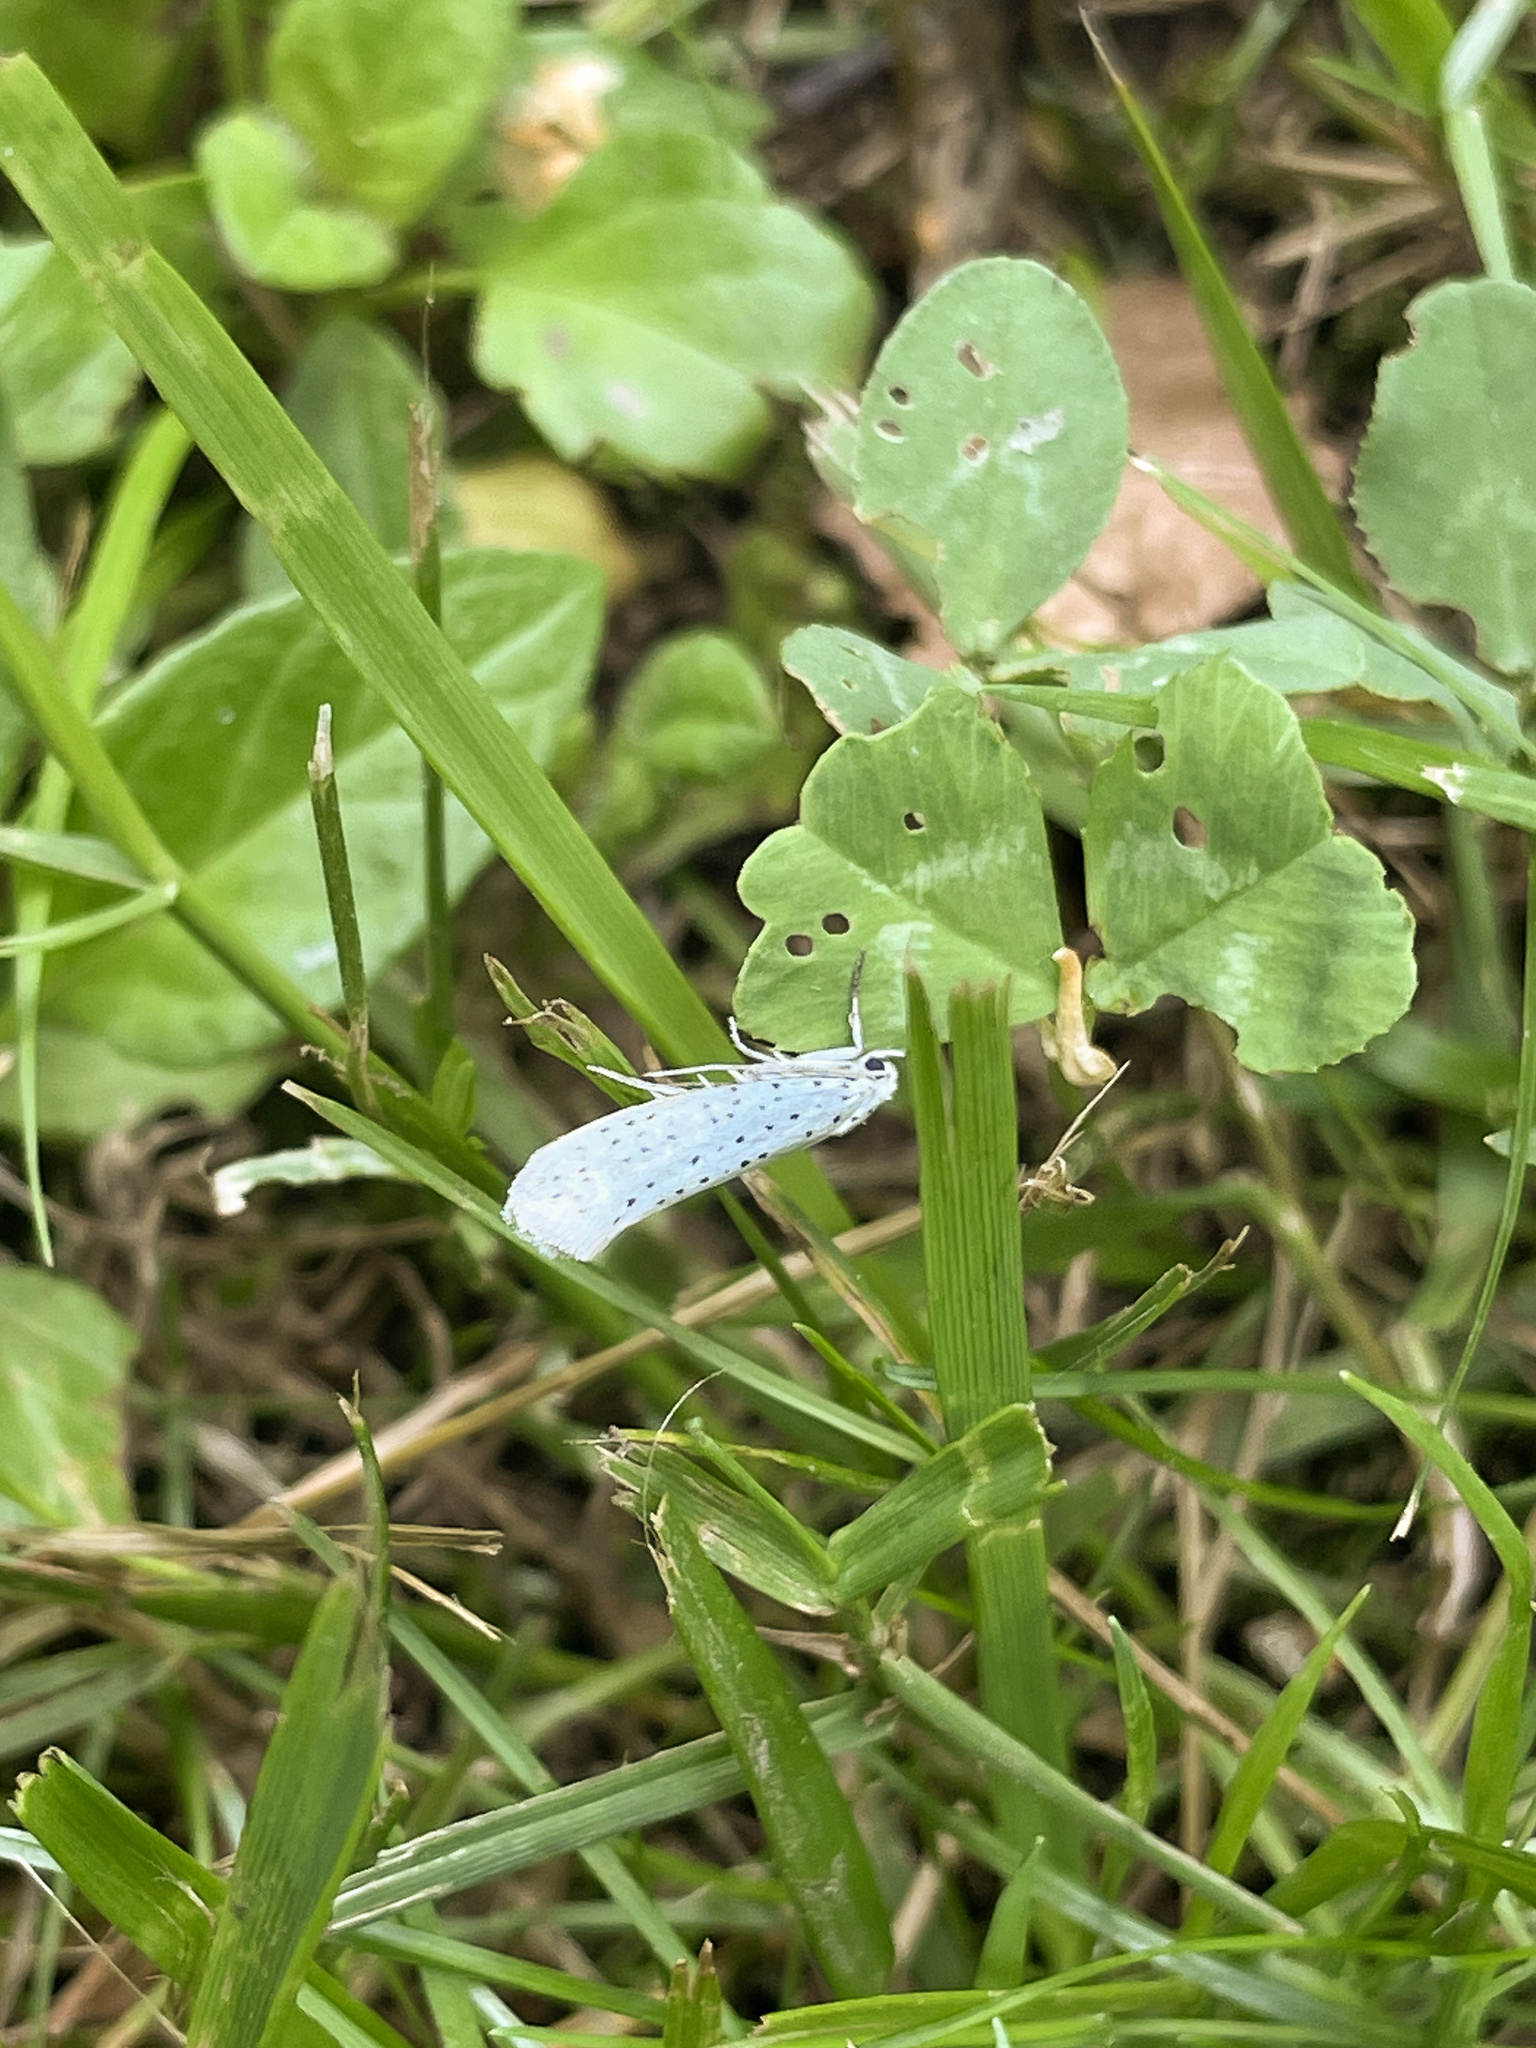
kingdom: Animalia
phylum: Arthropoda
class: Insecta
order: Lepidoptera
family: Yponomeutidae
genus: Yponomeuta
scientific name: Yponomeuta evonymella
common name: Bird-cherry ermine
